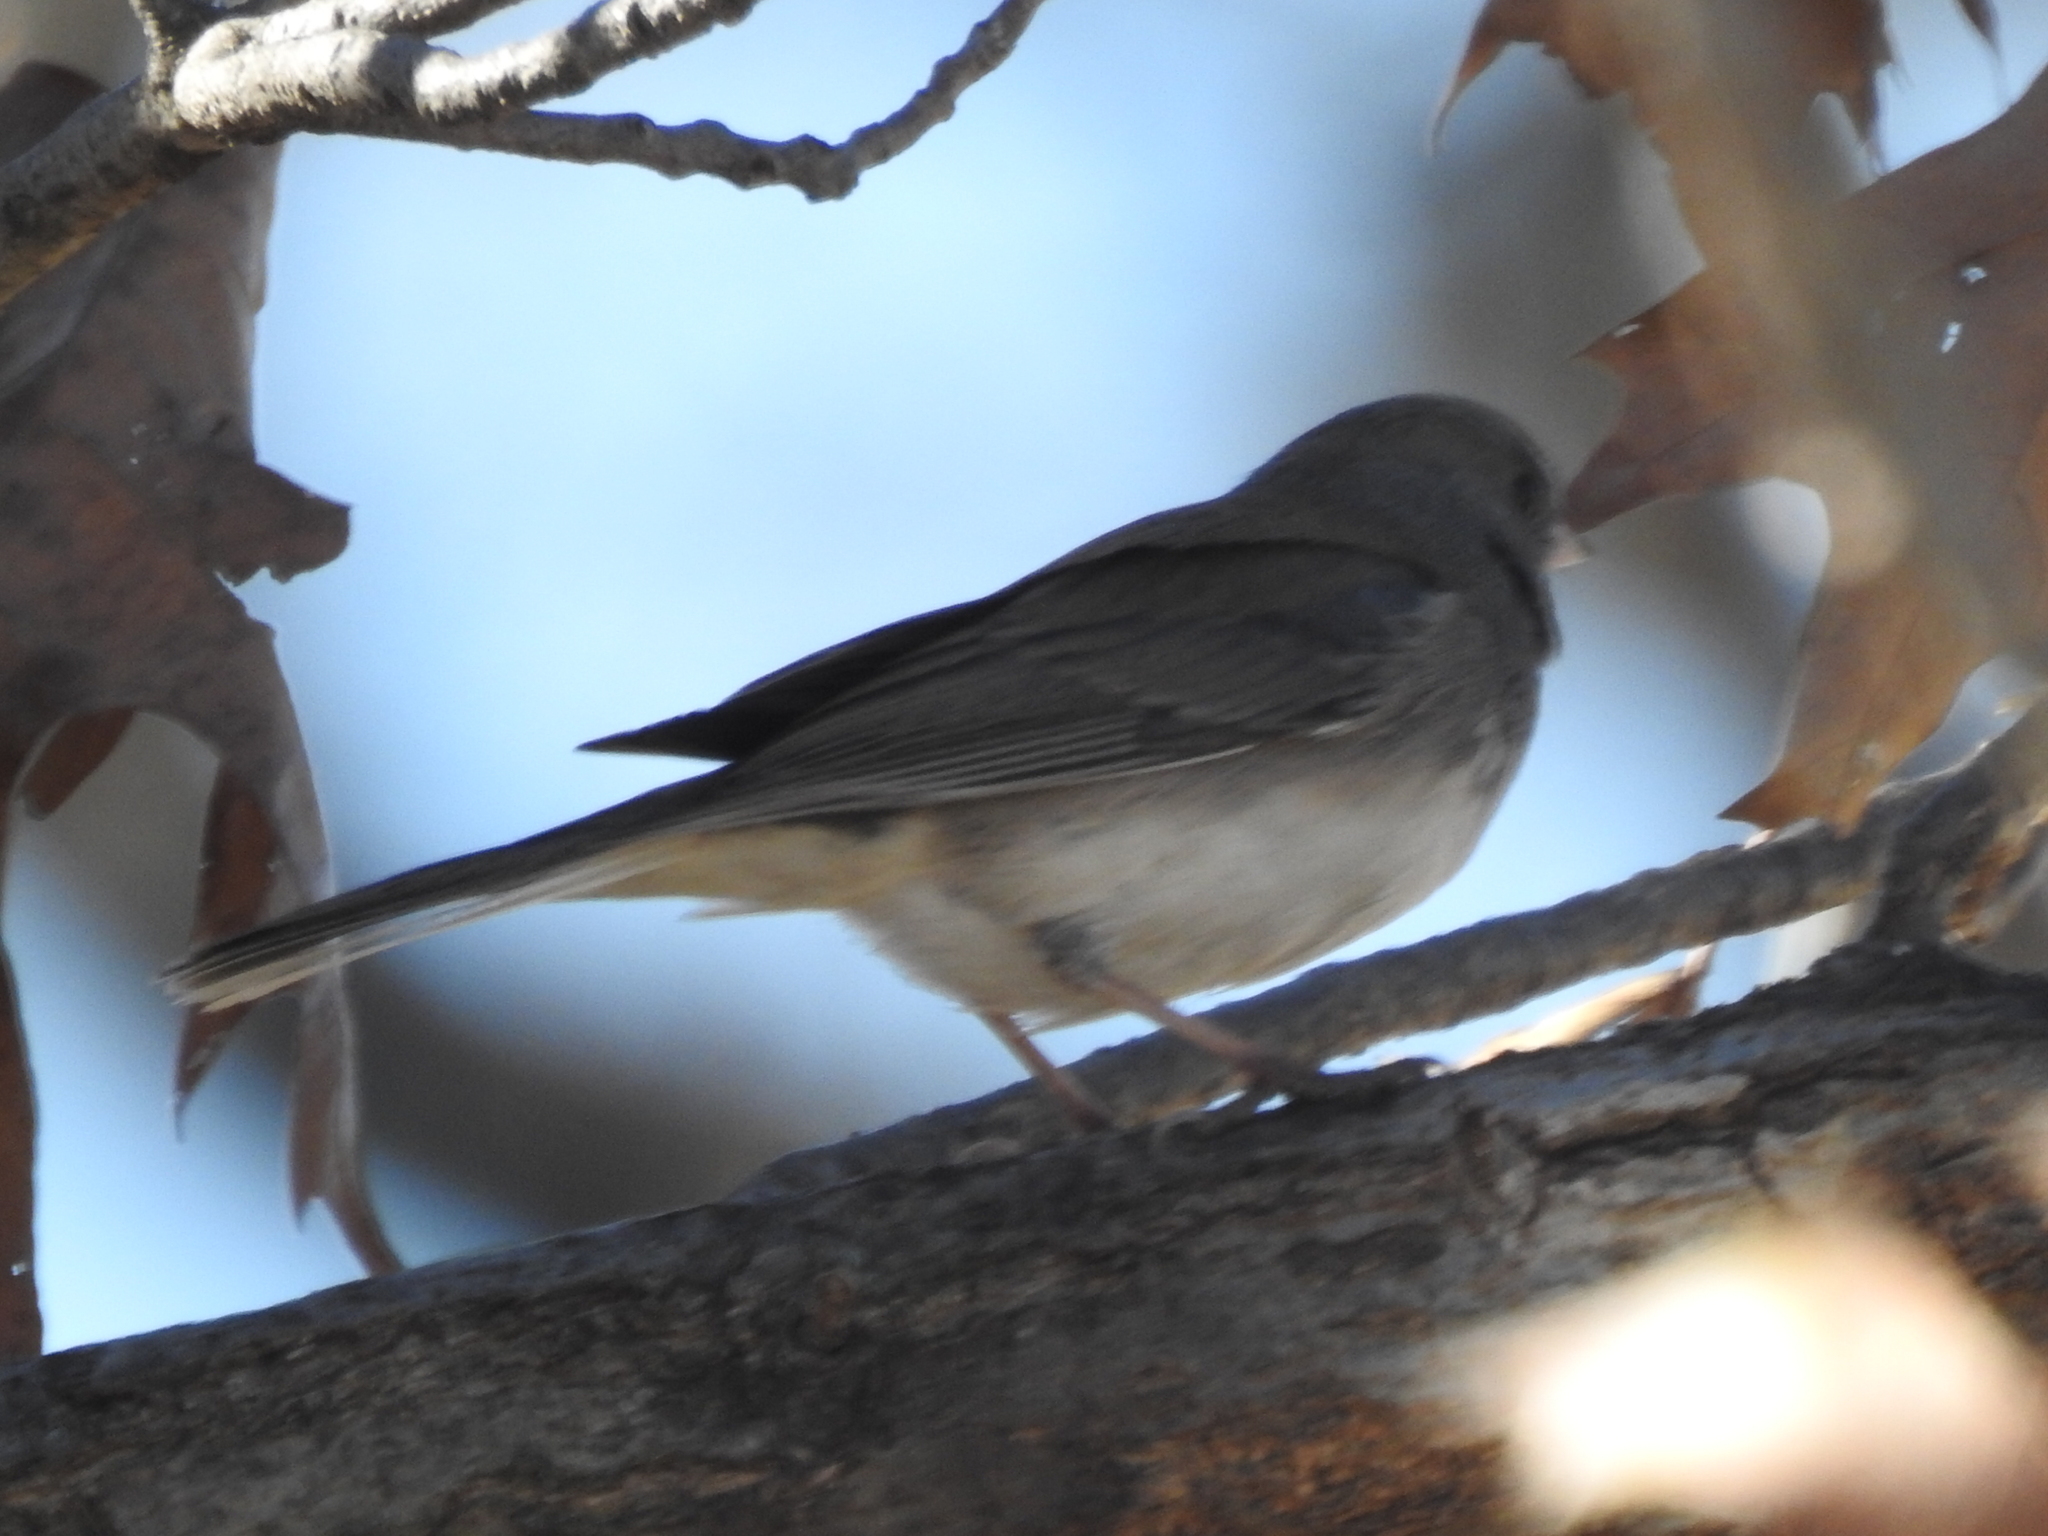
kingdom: Animalia
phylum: Chordata
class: Aves
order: Passeriformes
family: Passerellidae
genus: Junco
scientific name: Junco hyemalis
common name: Dark-eyed junco
